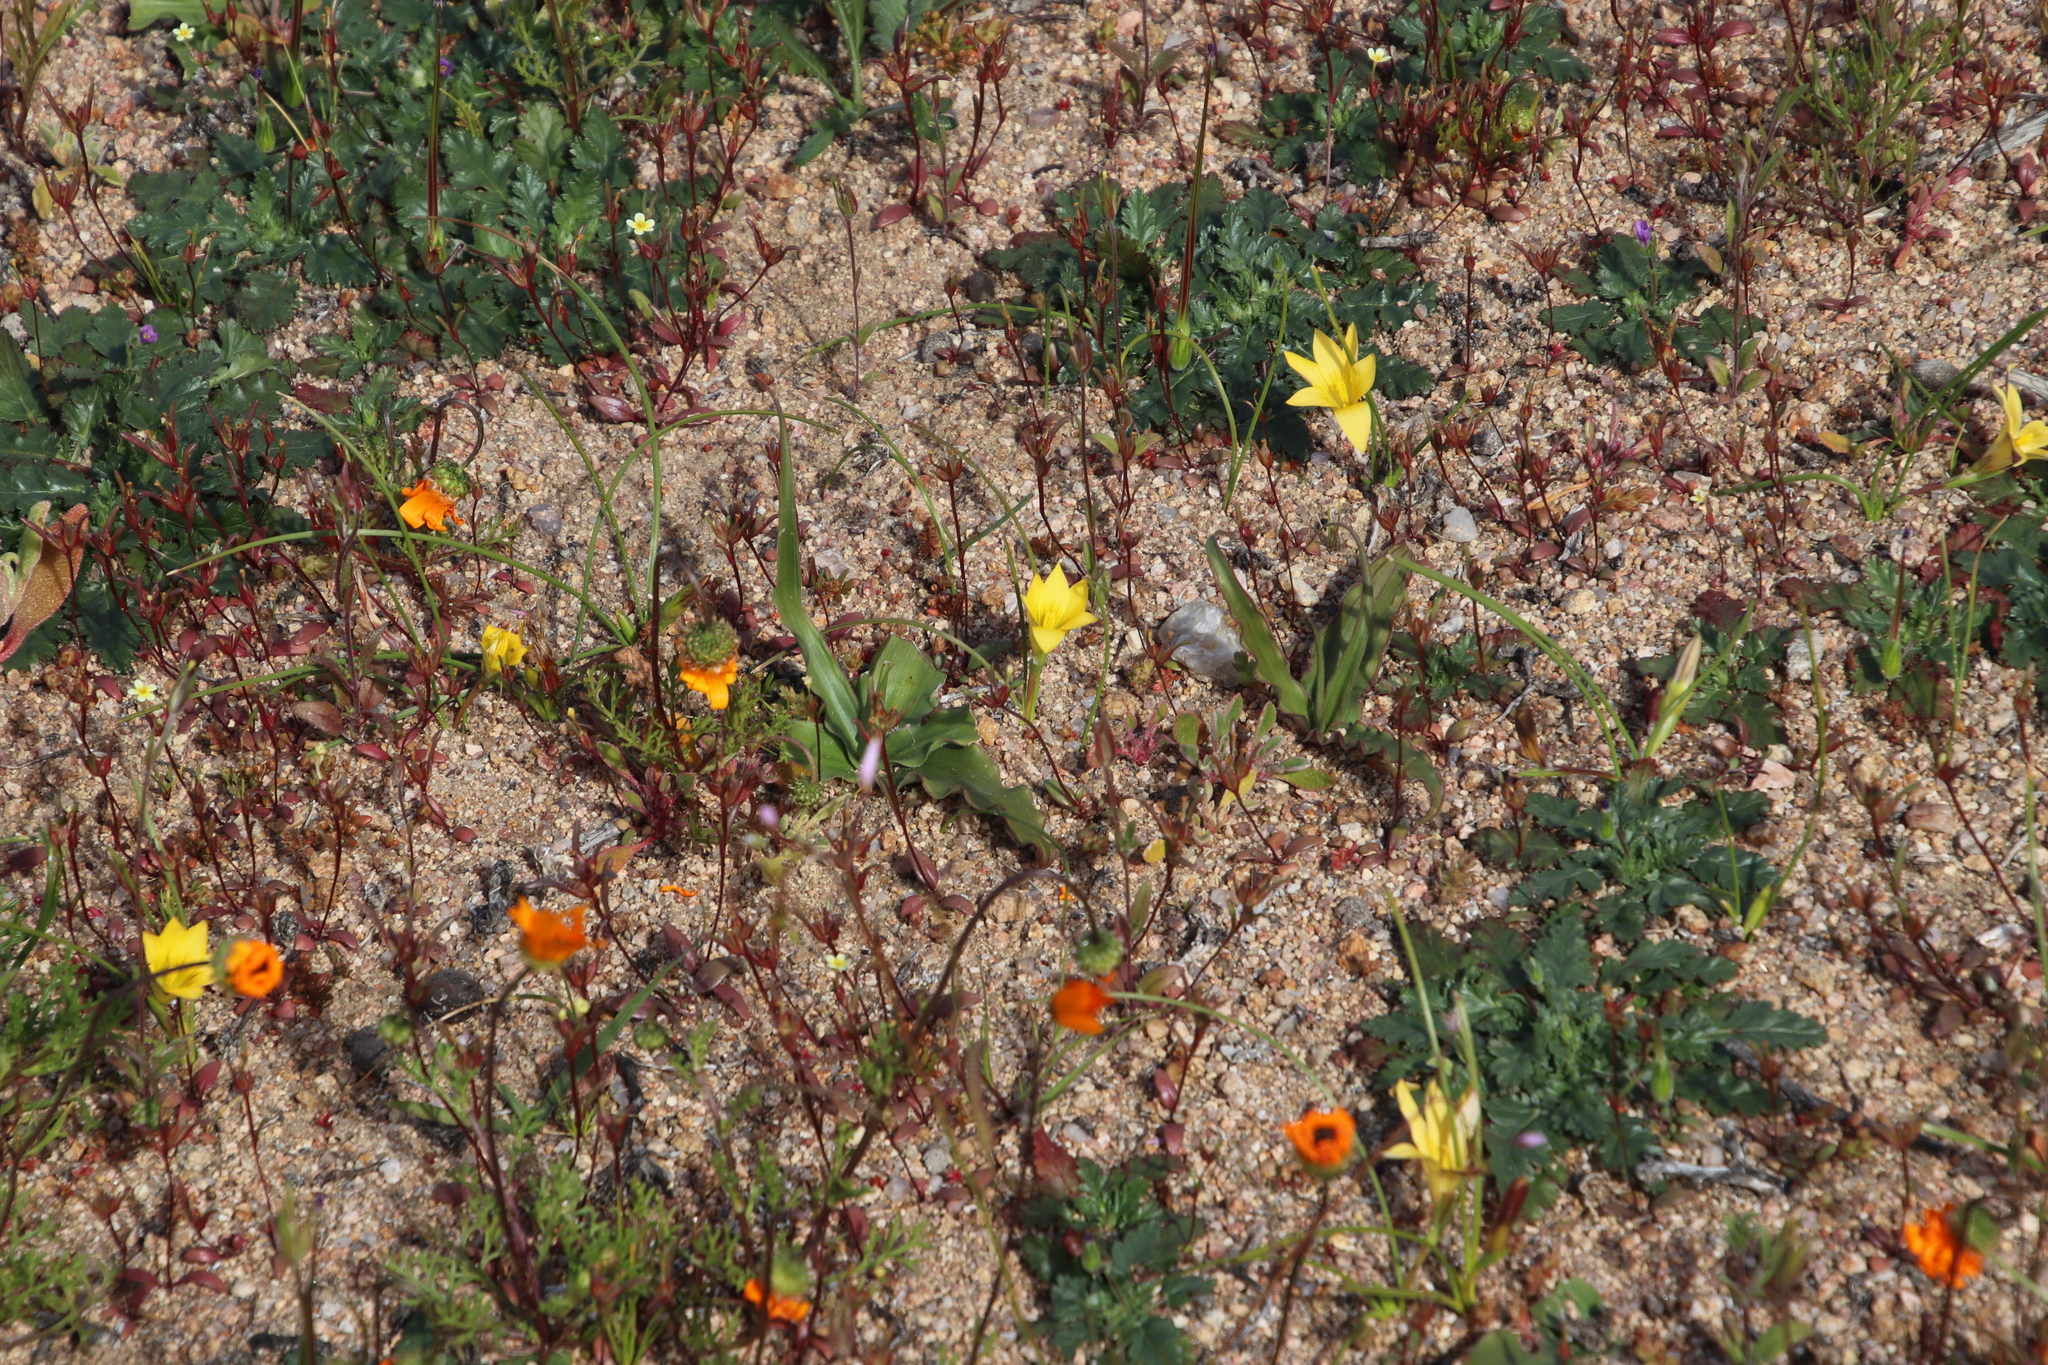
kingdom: Plantae
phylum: Tracheophyta
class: Liliopsida
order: Asparagales
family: Iridaceae
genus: Romulea
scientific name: Romulea citrina
